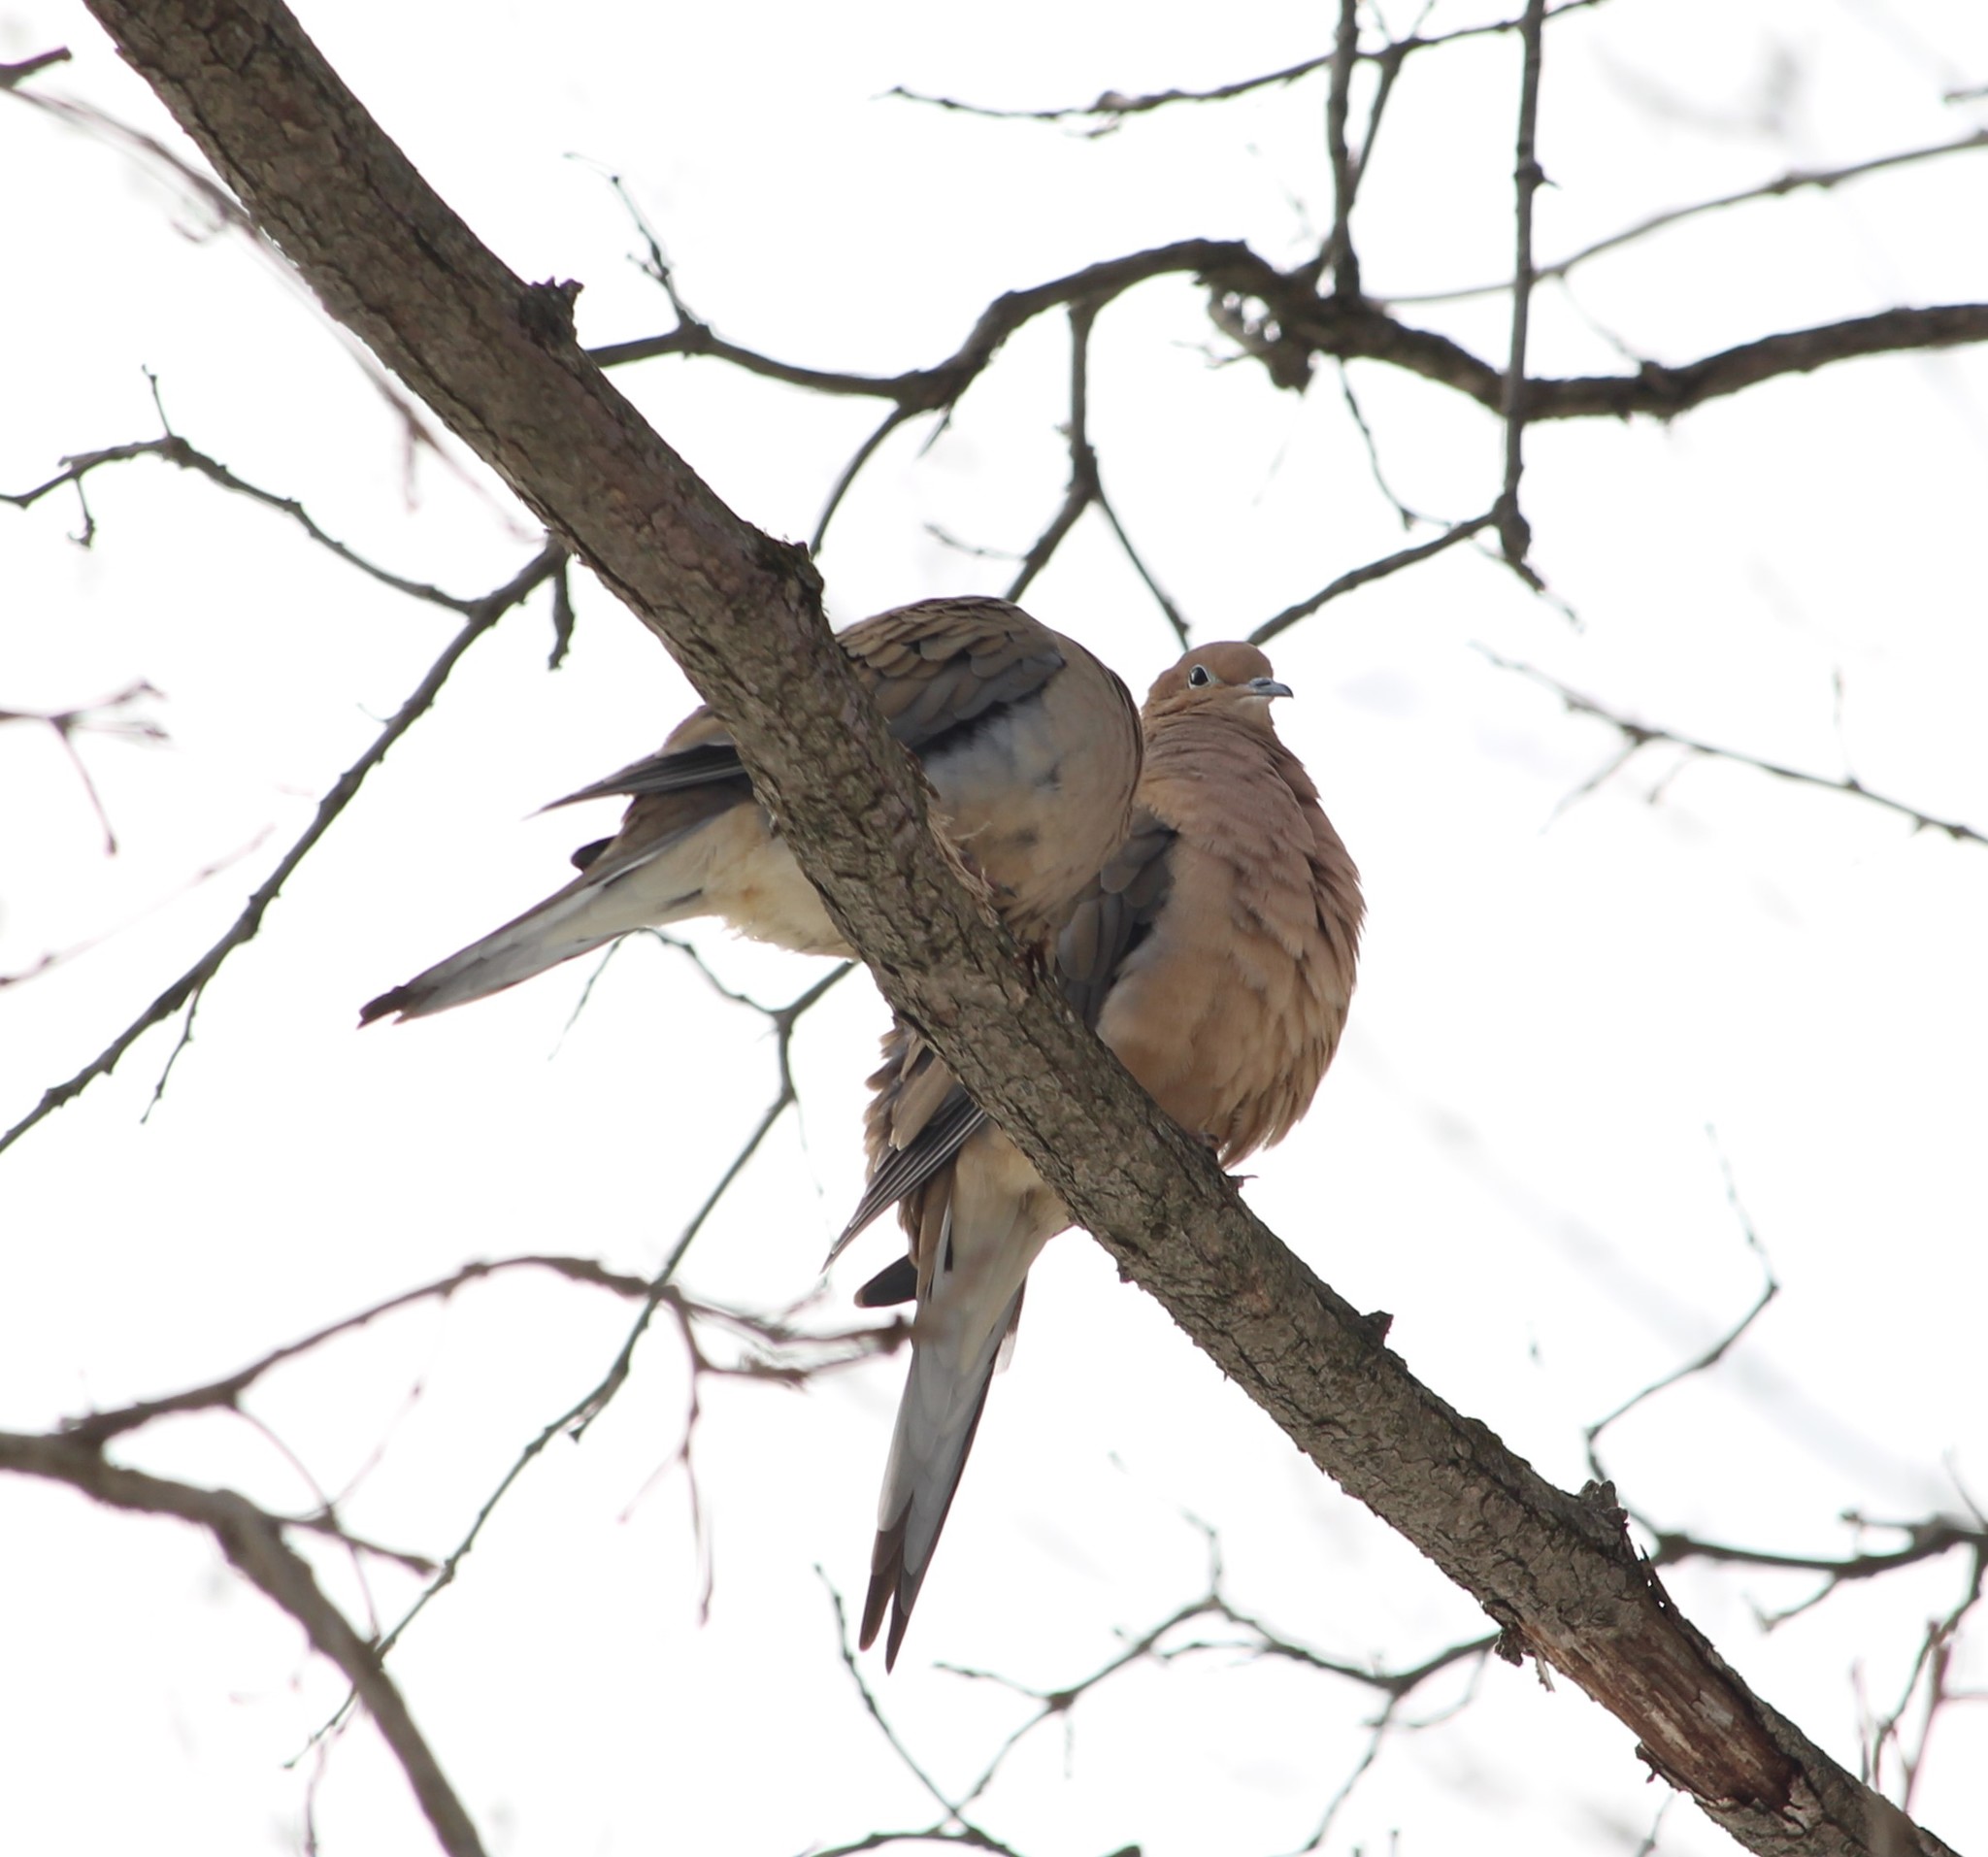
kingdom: Animalia
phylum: Chordata
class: Aves
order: Columbiformes
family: Columbidae
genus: Zenaida
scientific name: Zenaida macroura
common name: Mourning dove
